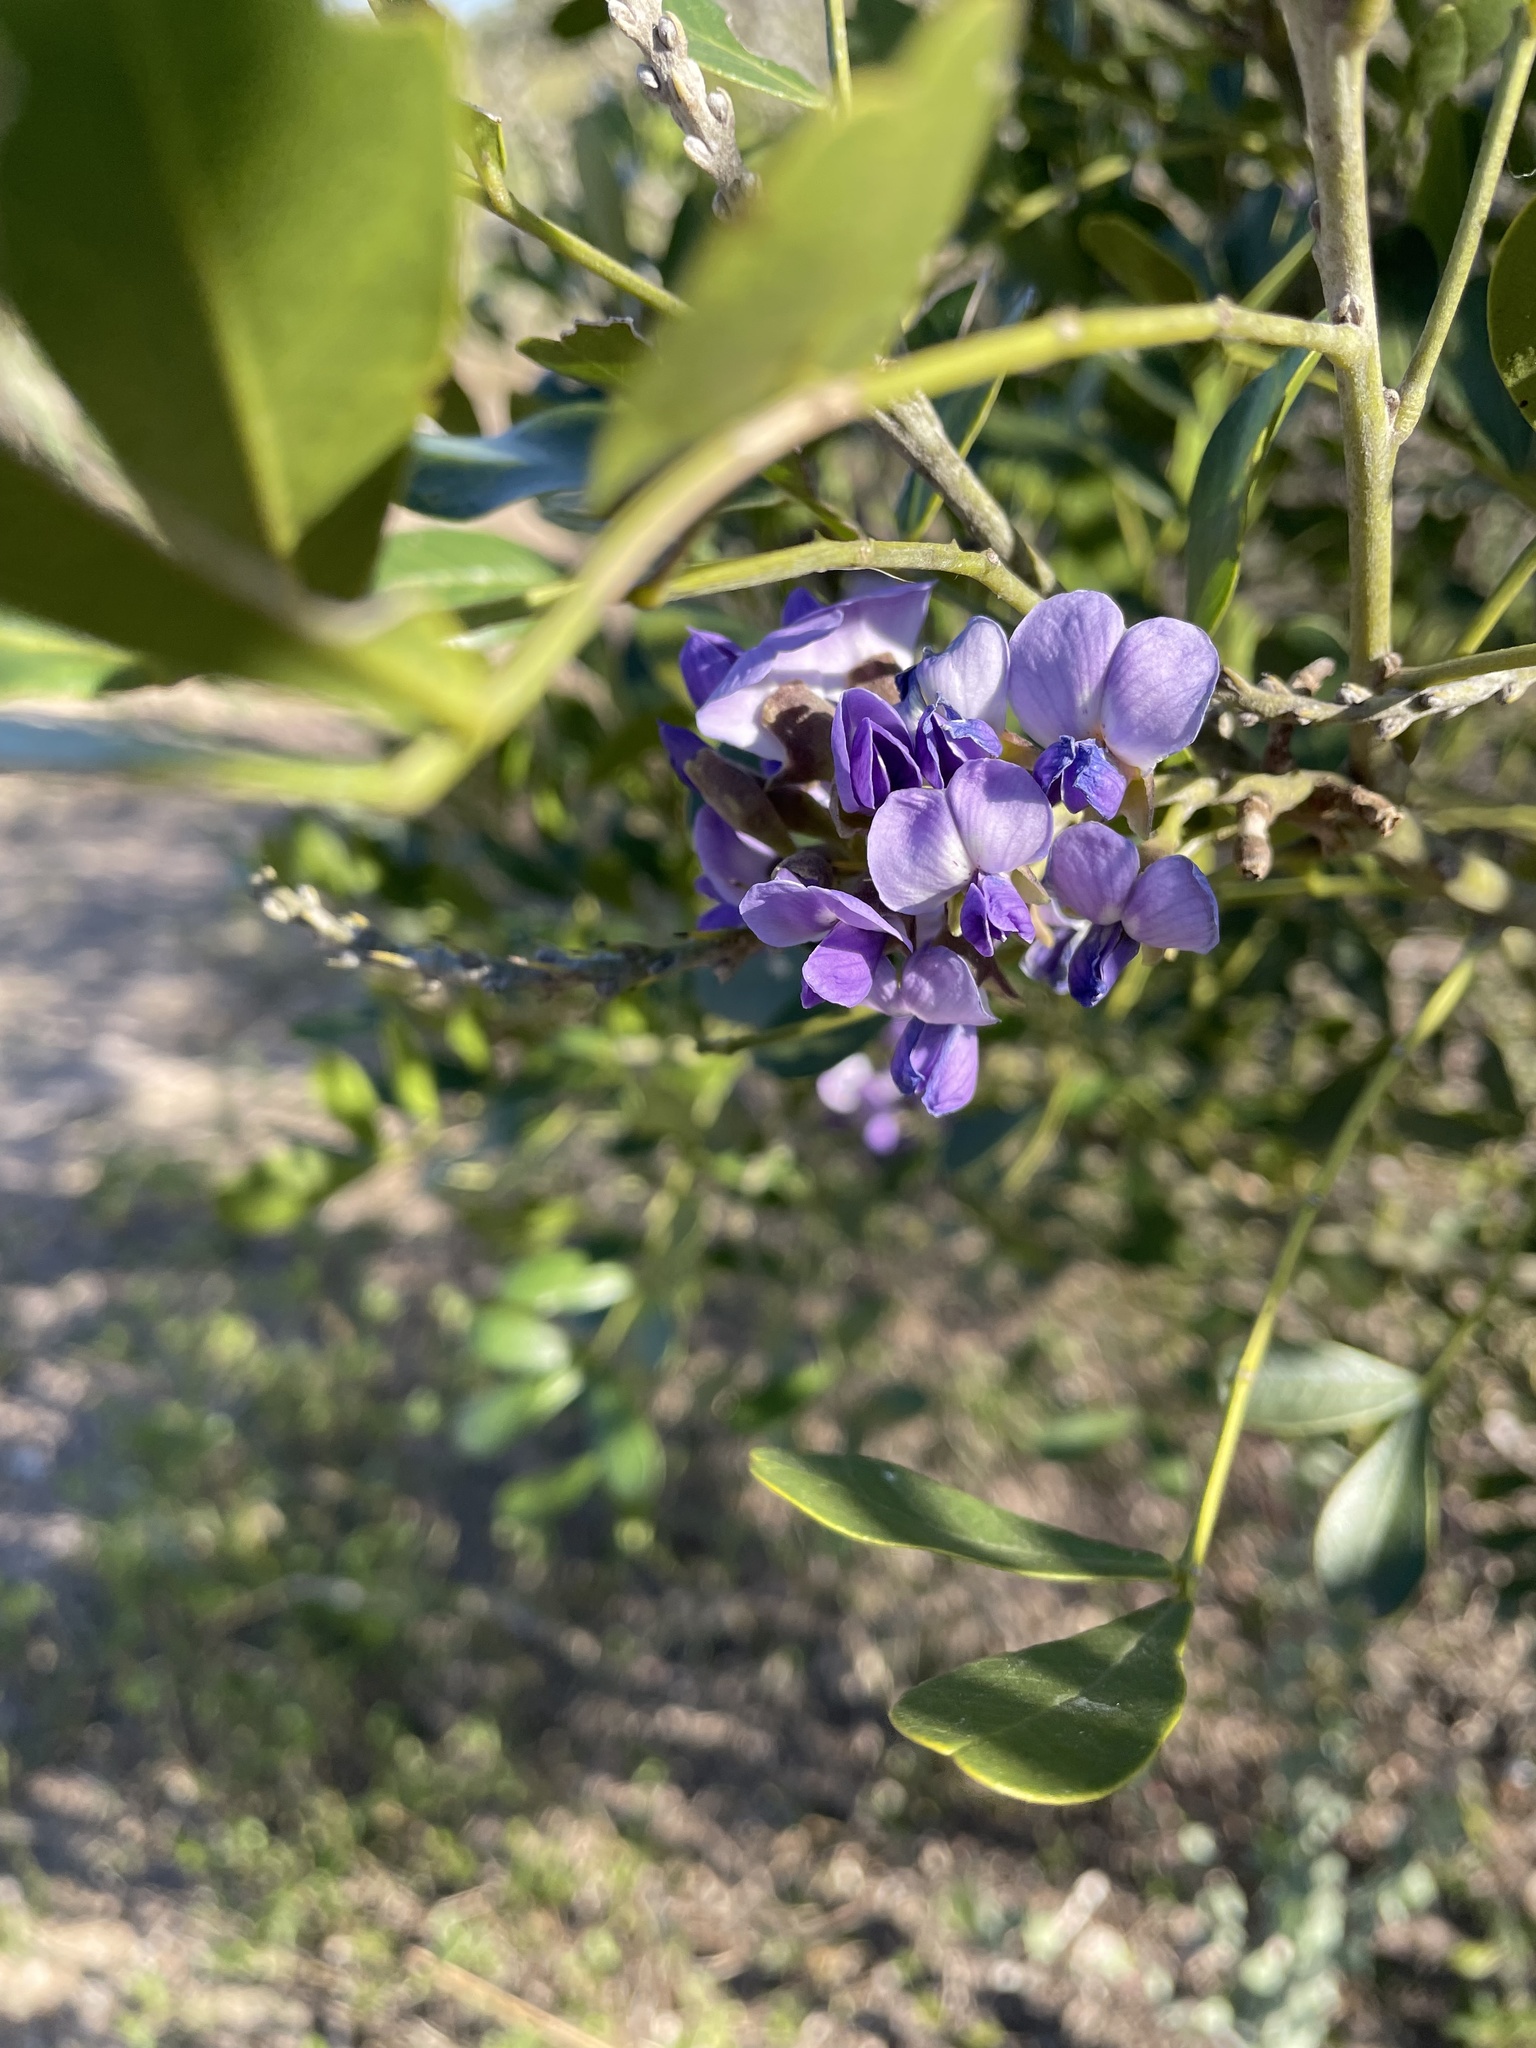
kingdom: Plantae
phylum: Tracheophyta
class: Magnoliopsida
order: Fabales
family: Fabaceae
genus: Dermatophyllum
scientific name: Dermatophyllum secundiflorum
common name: Texas-mountain-laurel
